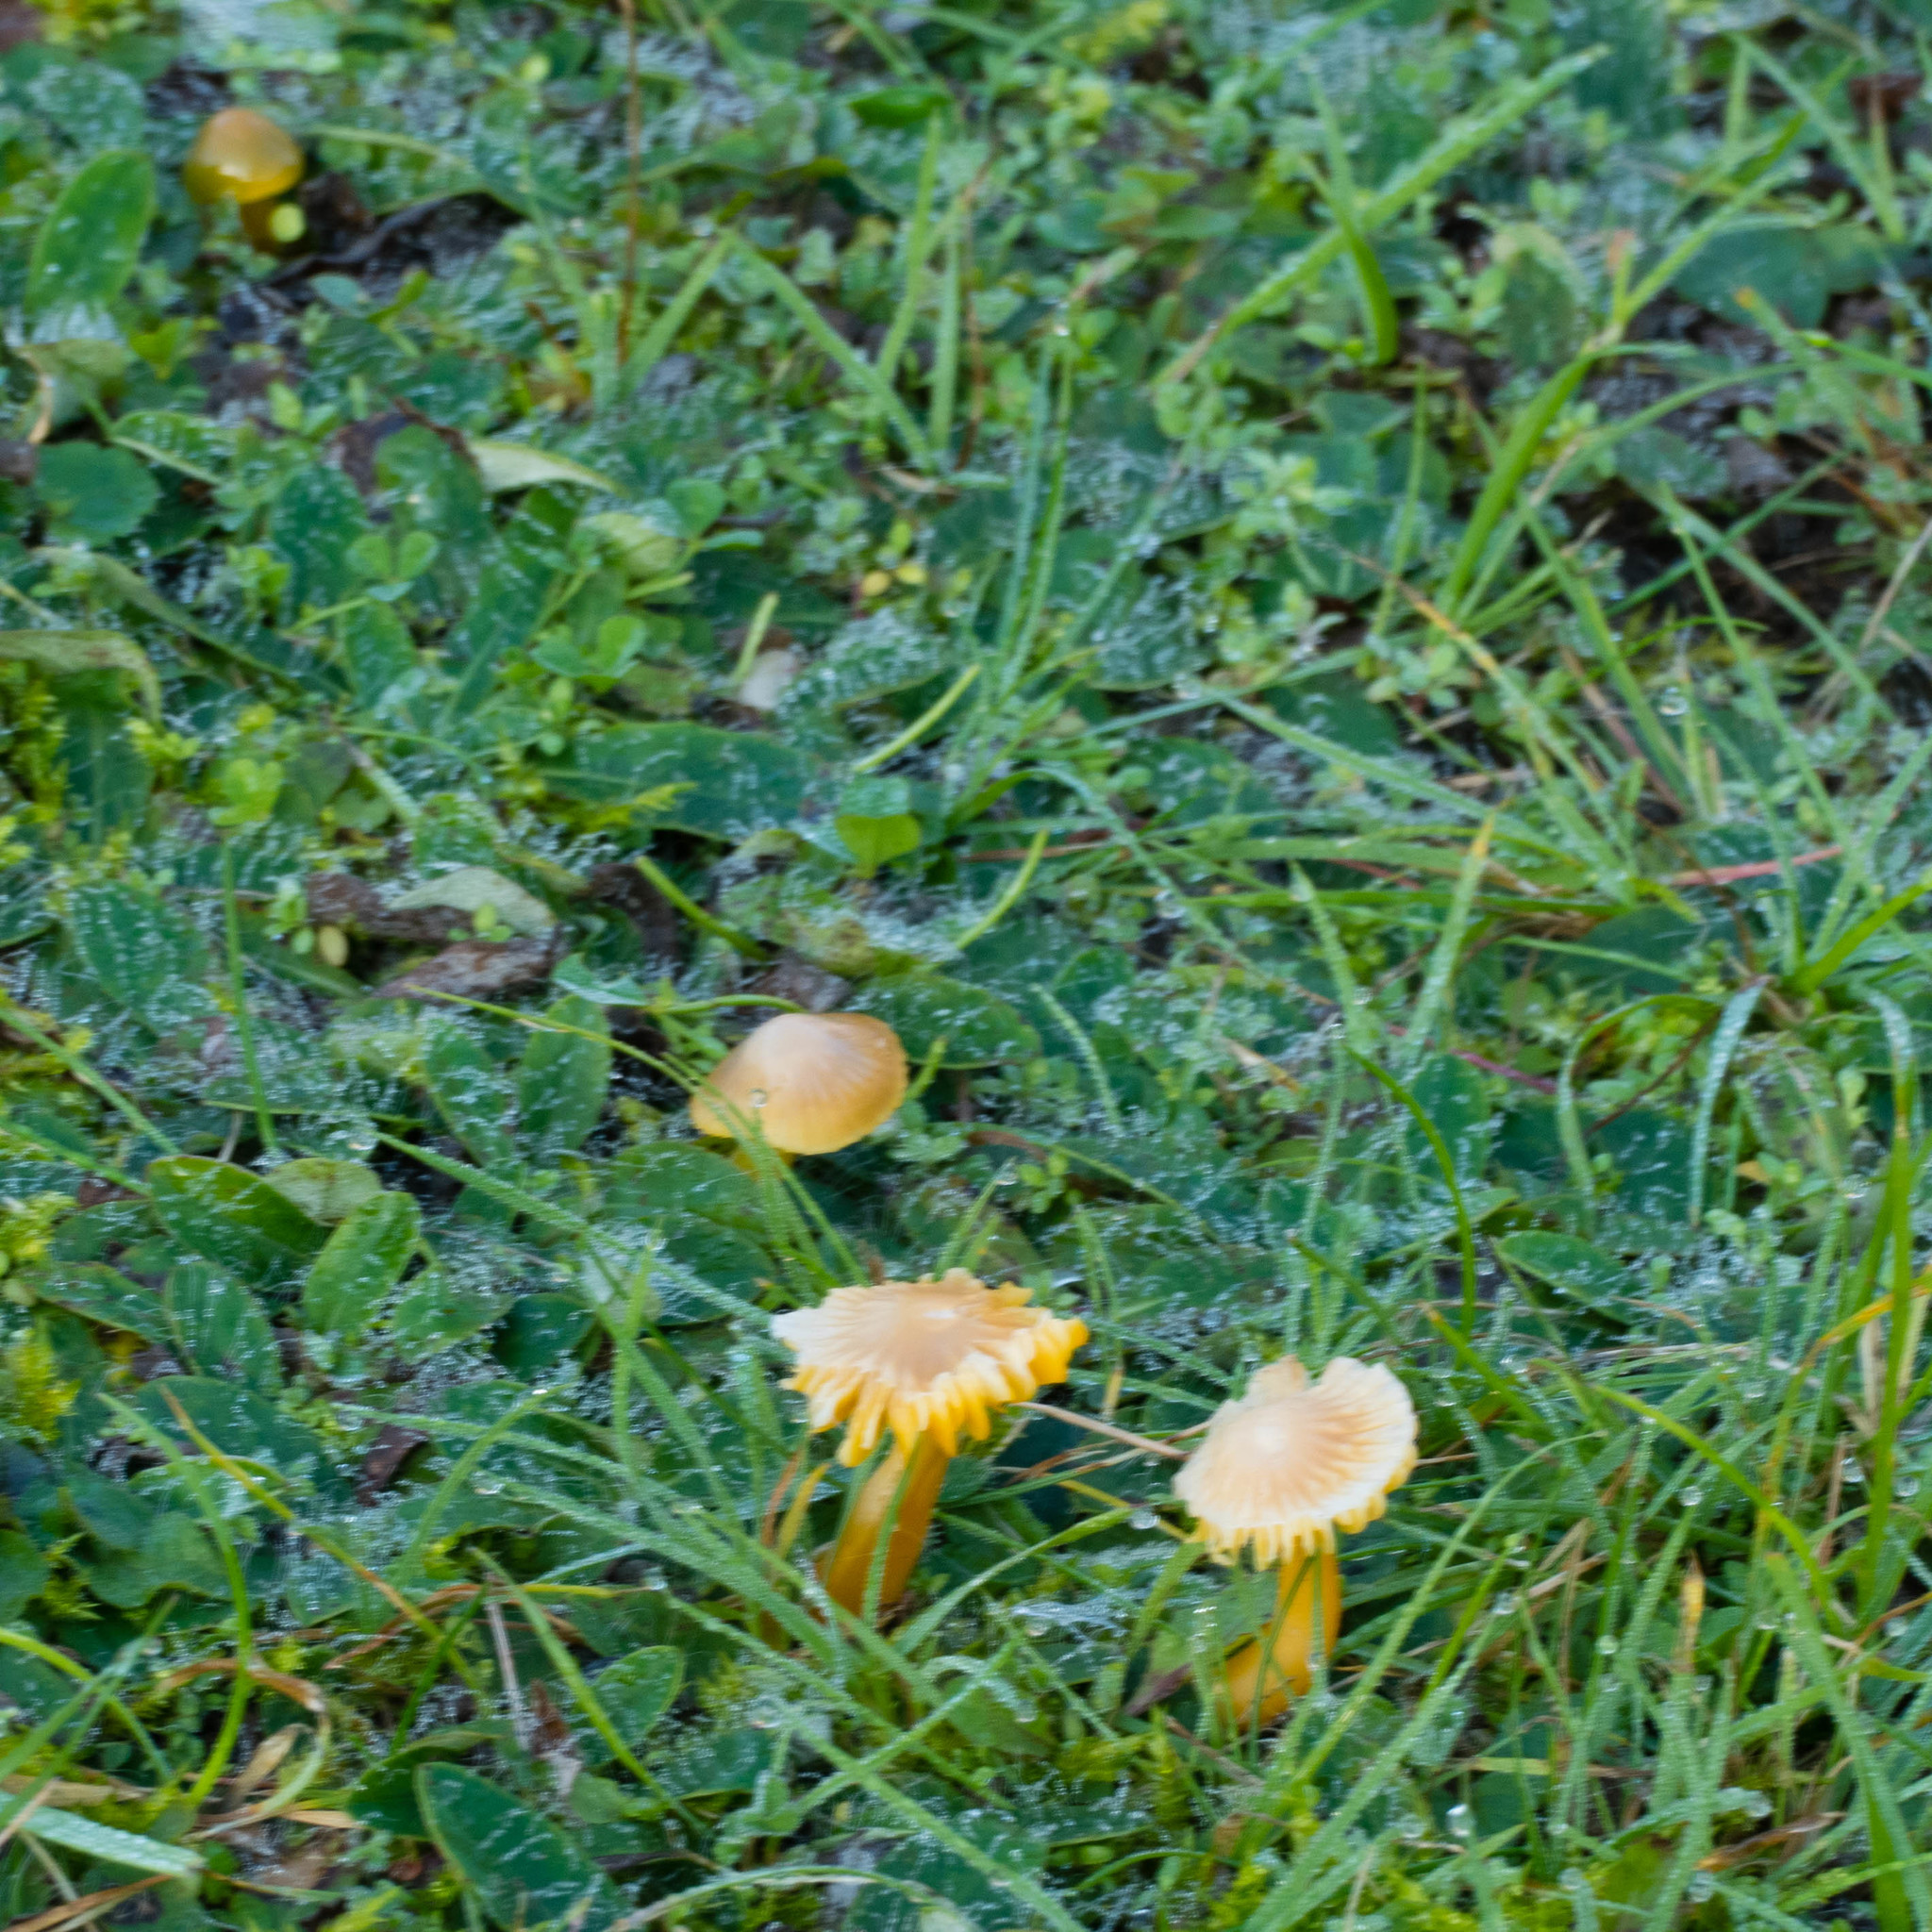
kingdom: Fungi
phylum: Basidiomycota
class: Agaricomycetes
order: Agaricales
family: Hygrophoraceae
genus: Gliophorus
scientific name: Gliophorus psittacinus
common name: Parrot wax-cap
